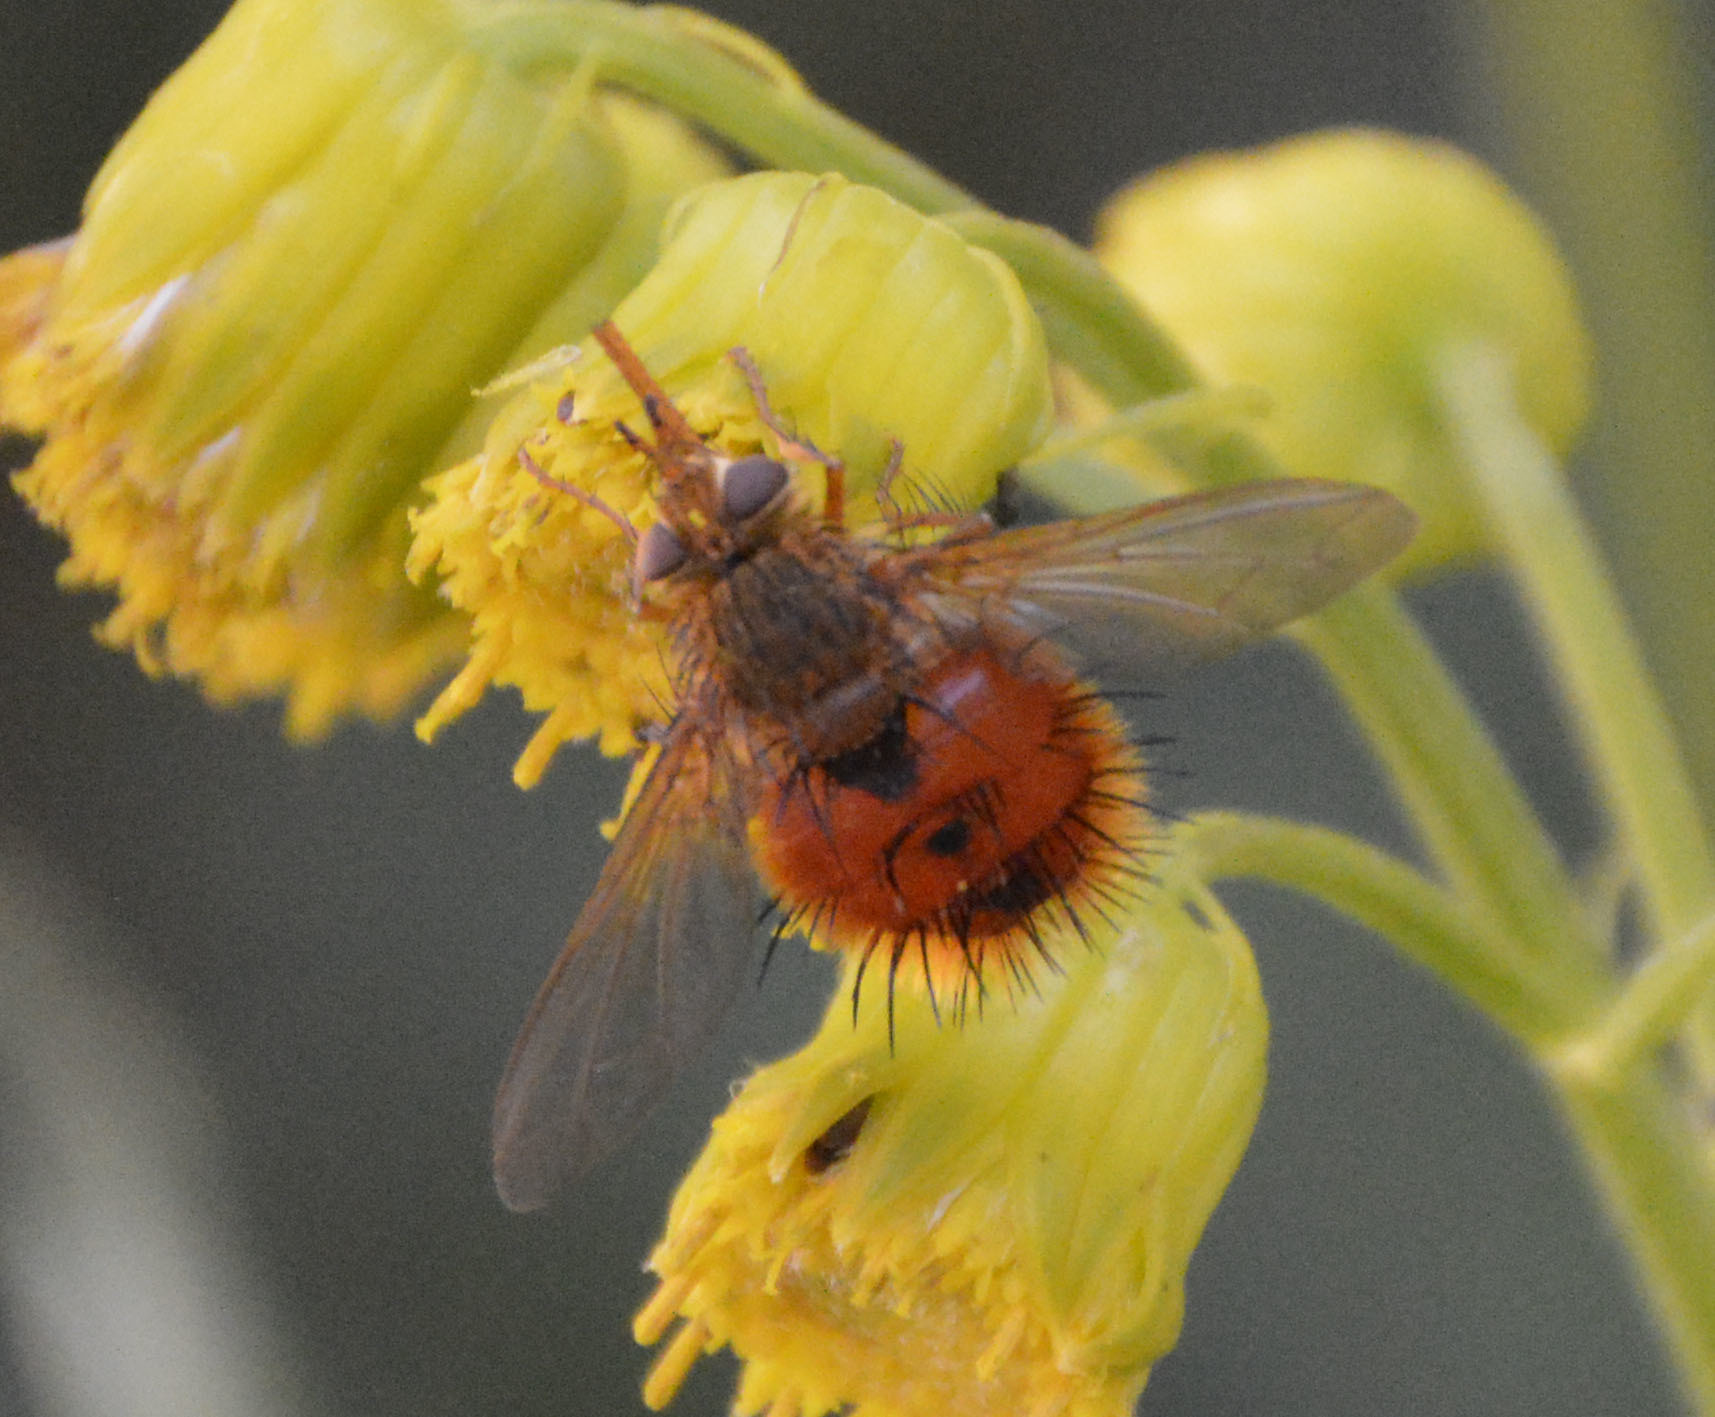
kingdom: Animalia
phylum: Arthropoda
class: Insecta
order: Diptera
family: Tachinidae
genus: Adejeania
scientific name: Adejeania vexatrix
